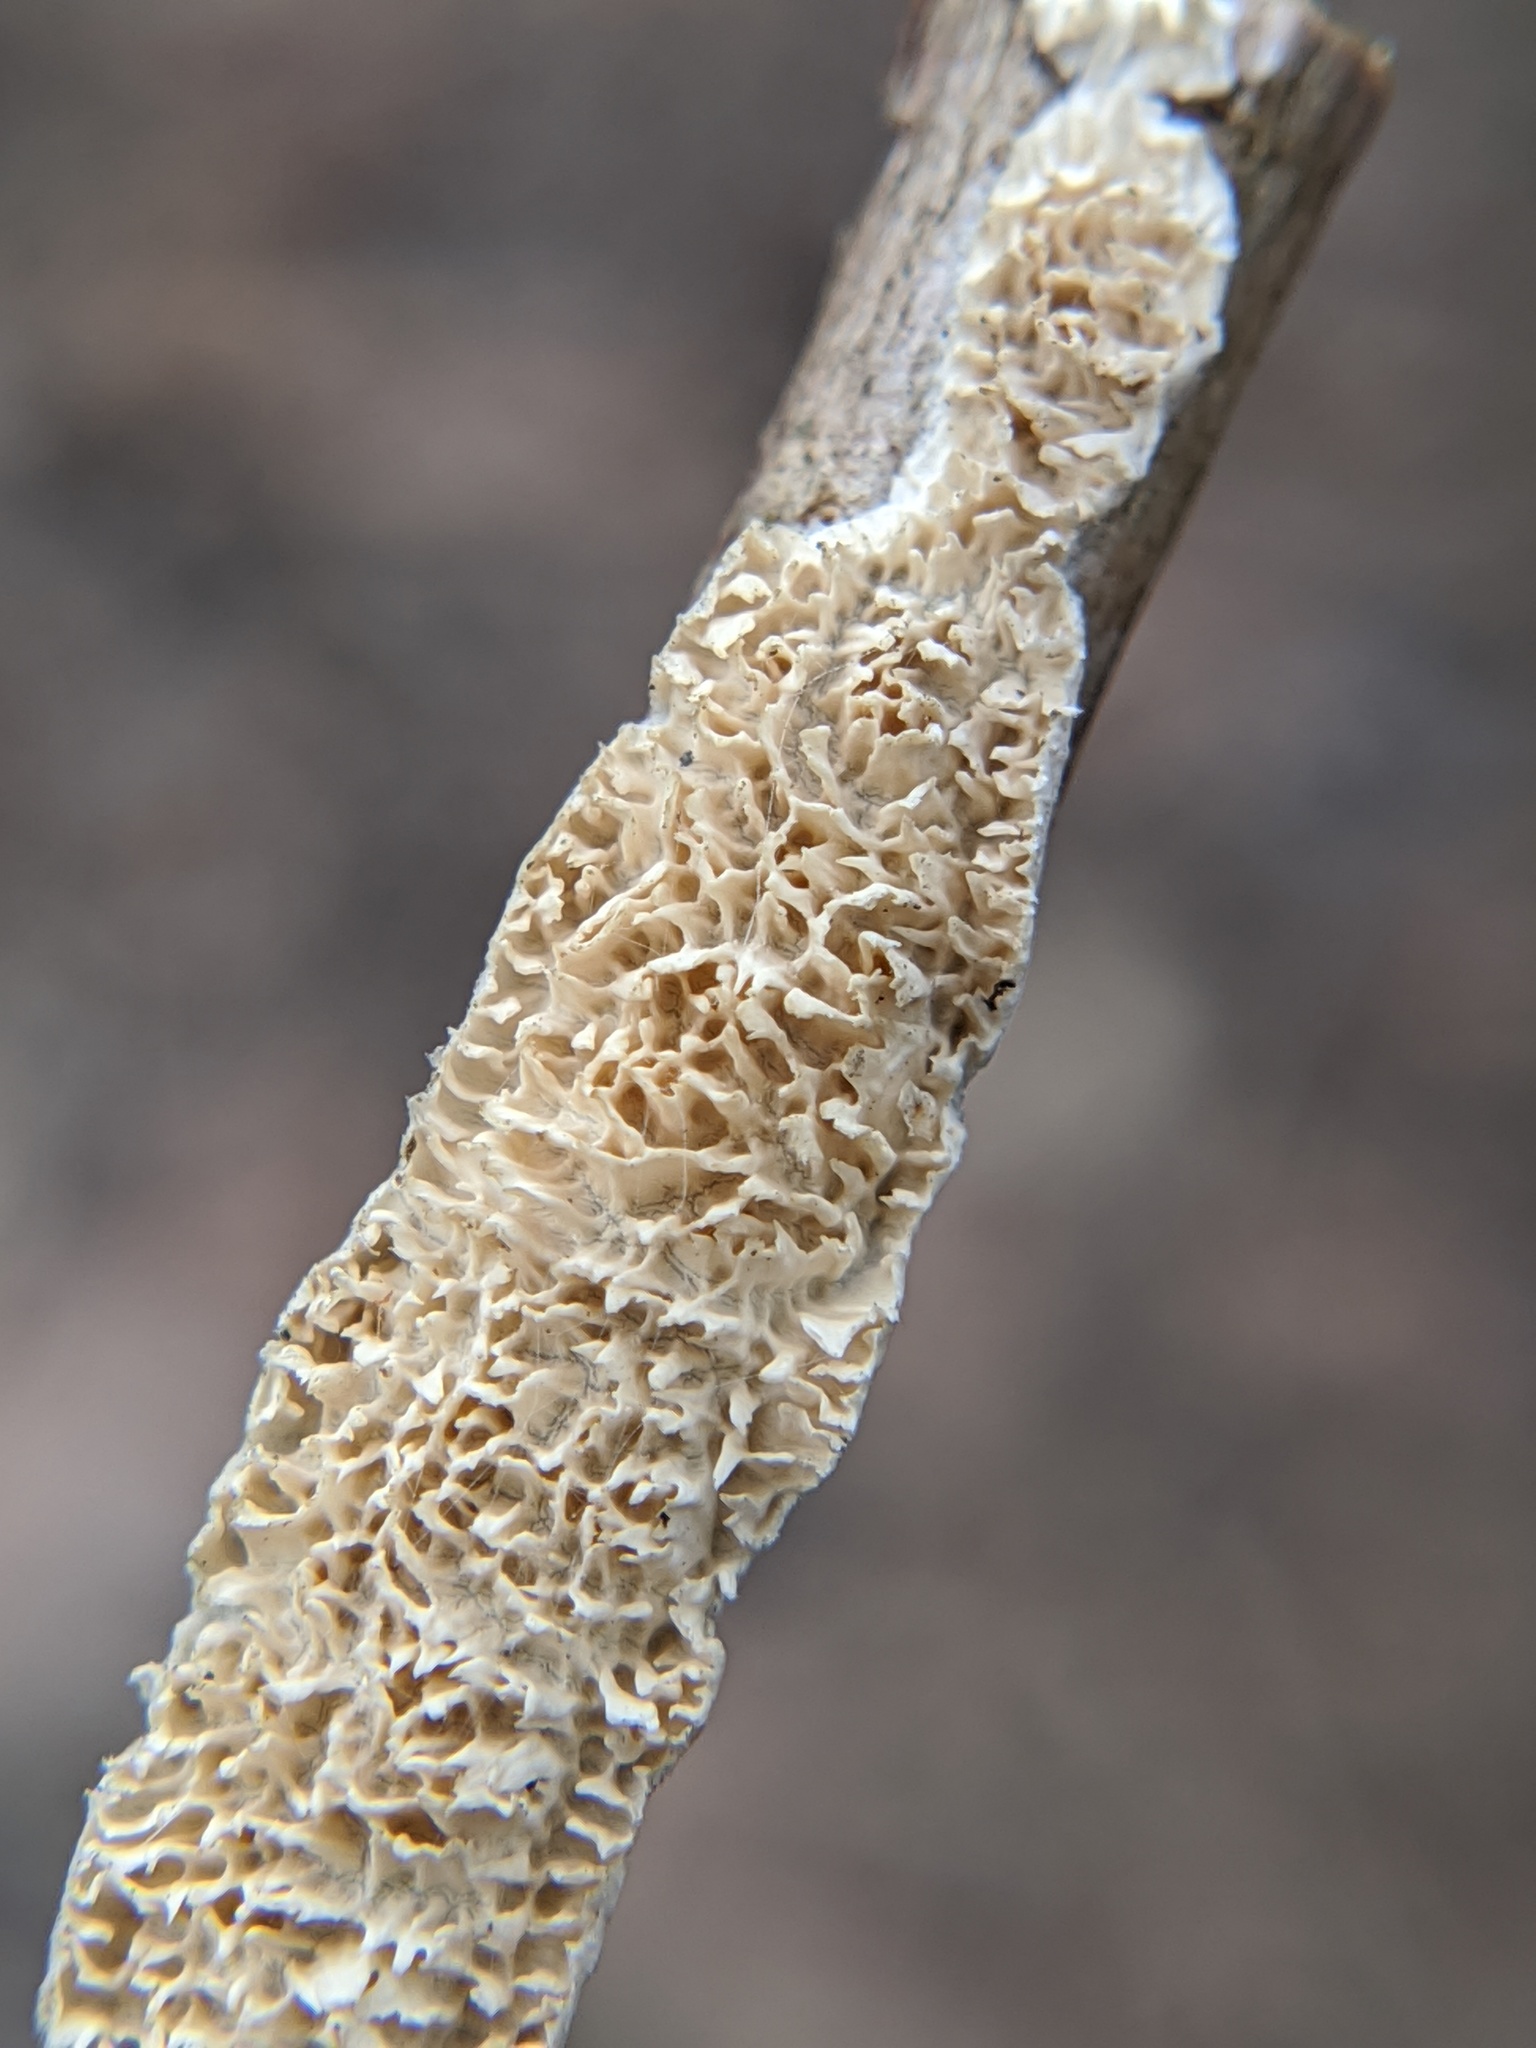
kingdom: Fungi
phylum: Basidiomycota
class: Agaricomycetes
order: Polyporales
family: Irpicaceae
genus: Irpex
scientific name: Irpex lacteus
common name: Milk-white toothed polypore
